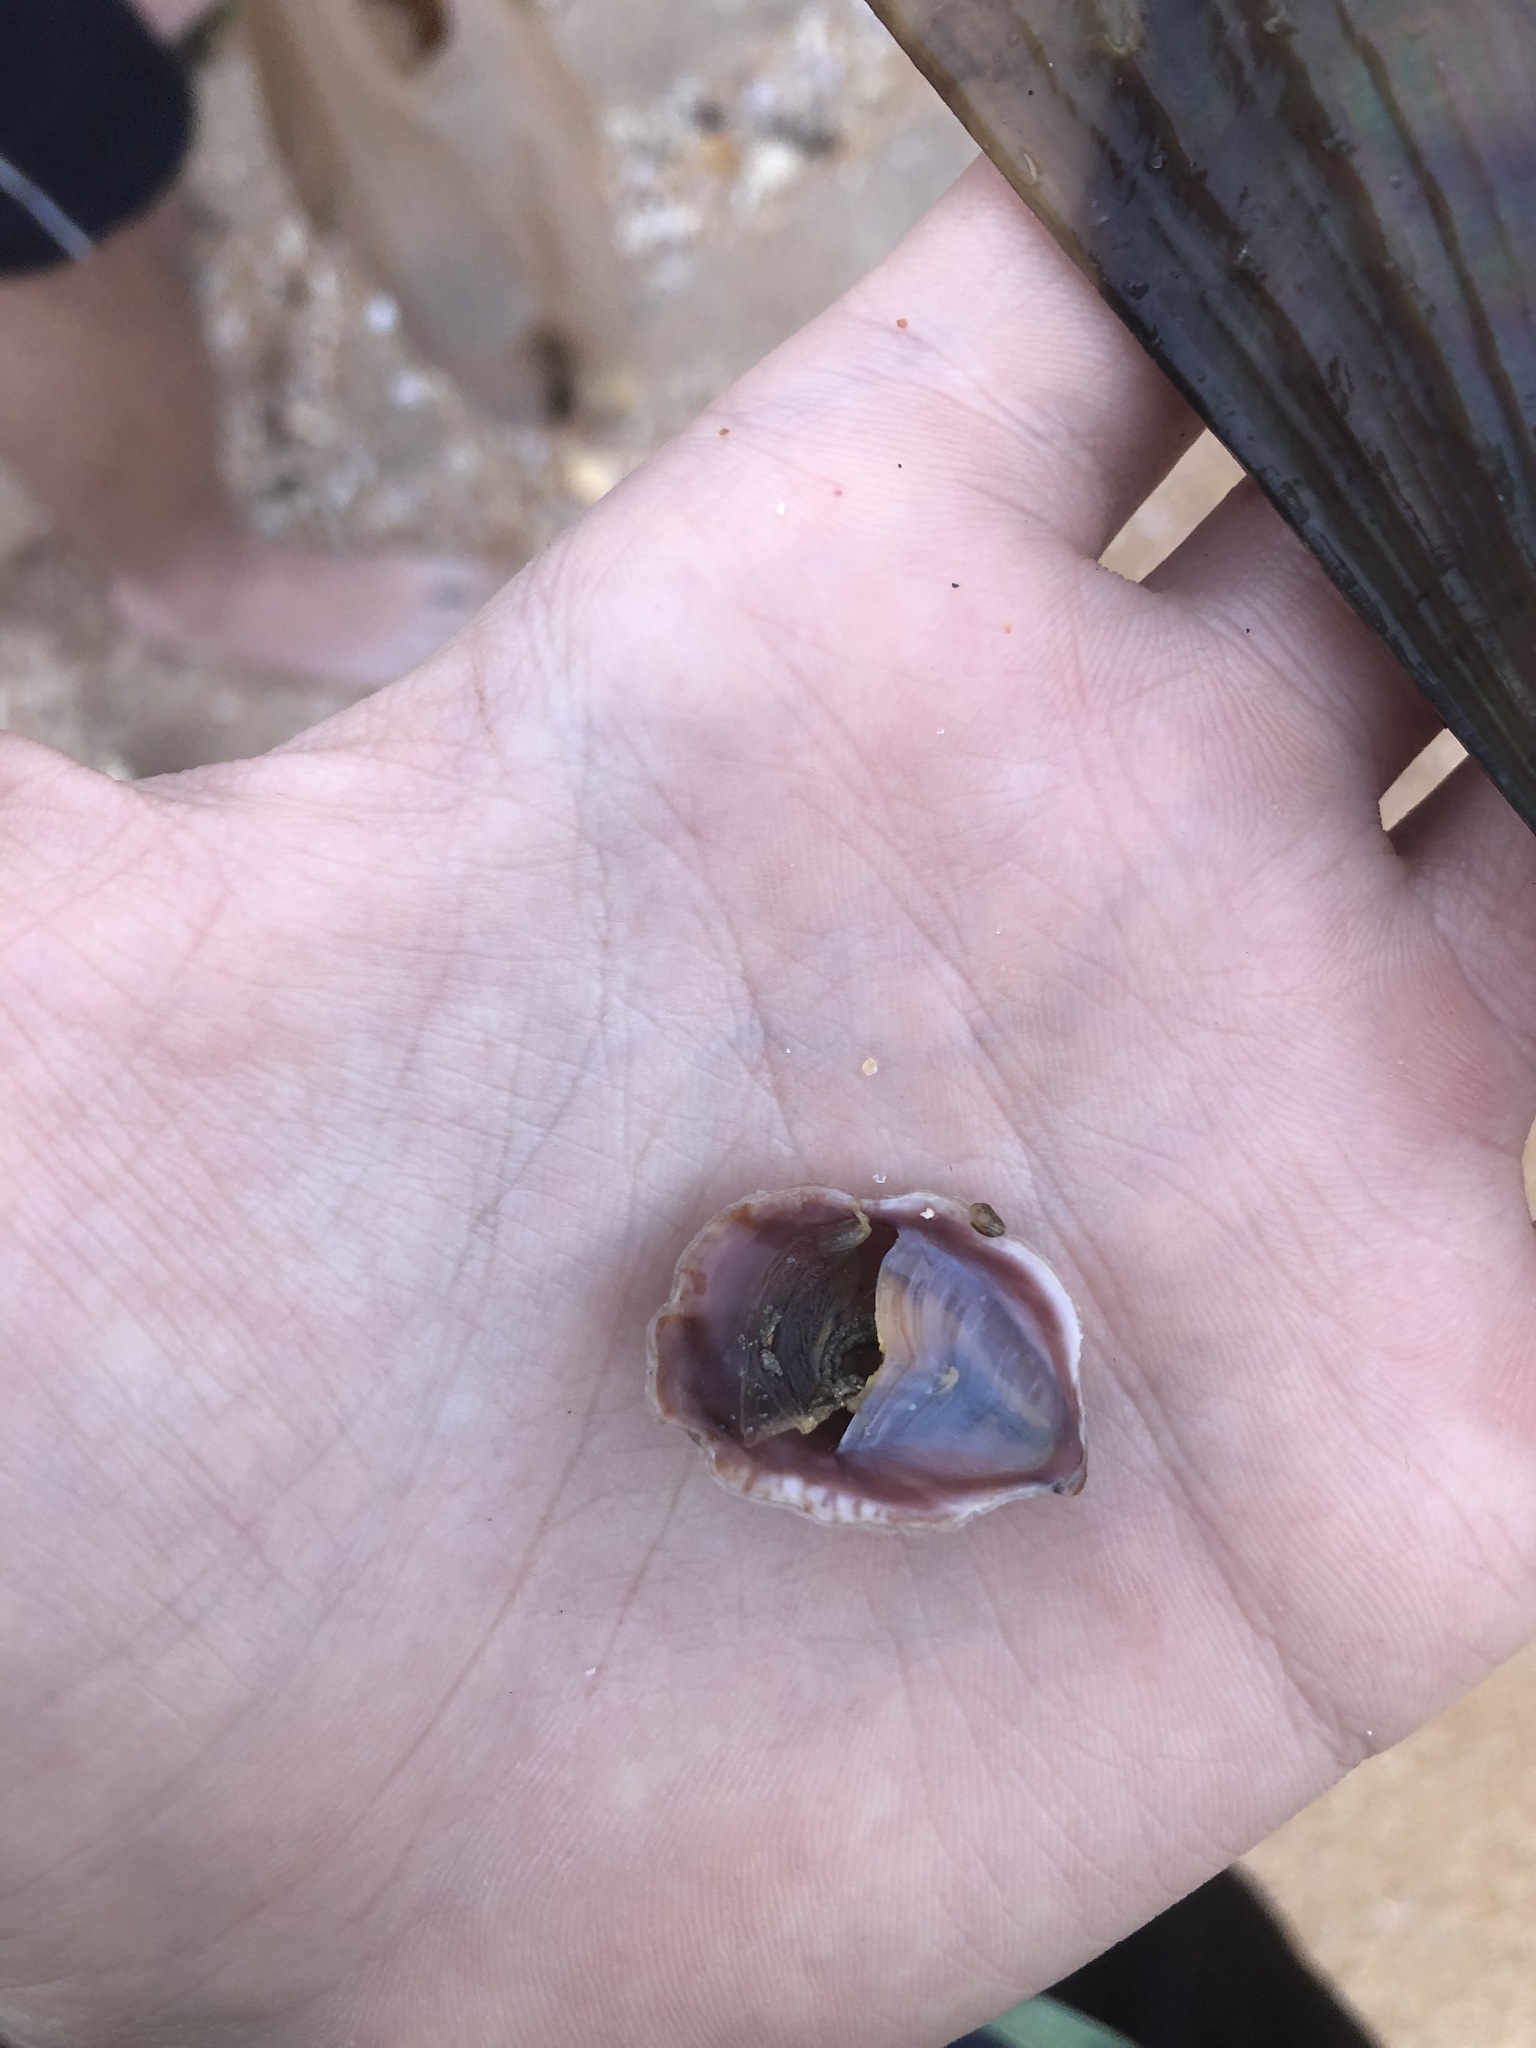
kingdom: Animalia
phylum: Mollusca
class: Gastropoda
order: Littorinimorpha
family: Calyptraeidae
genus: Crepidula
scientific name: Crepidula fornicata
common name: Slipper limpet
